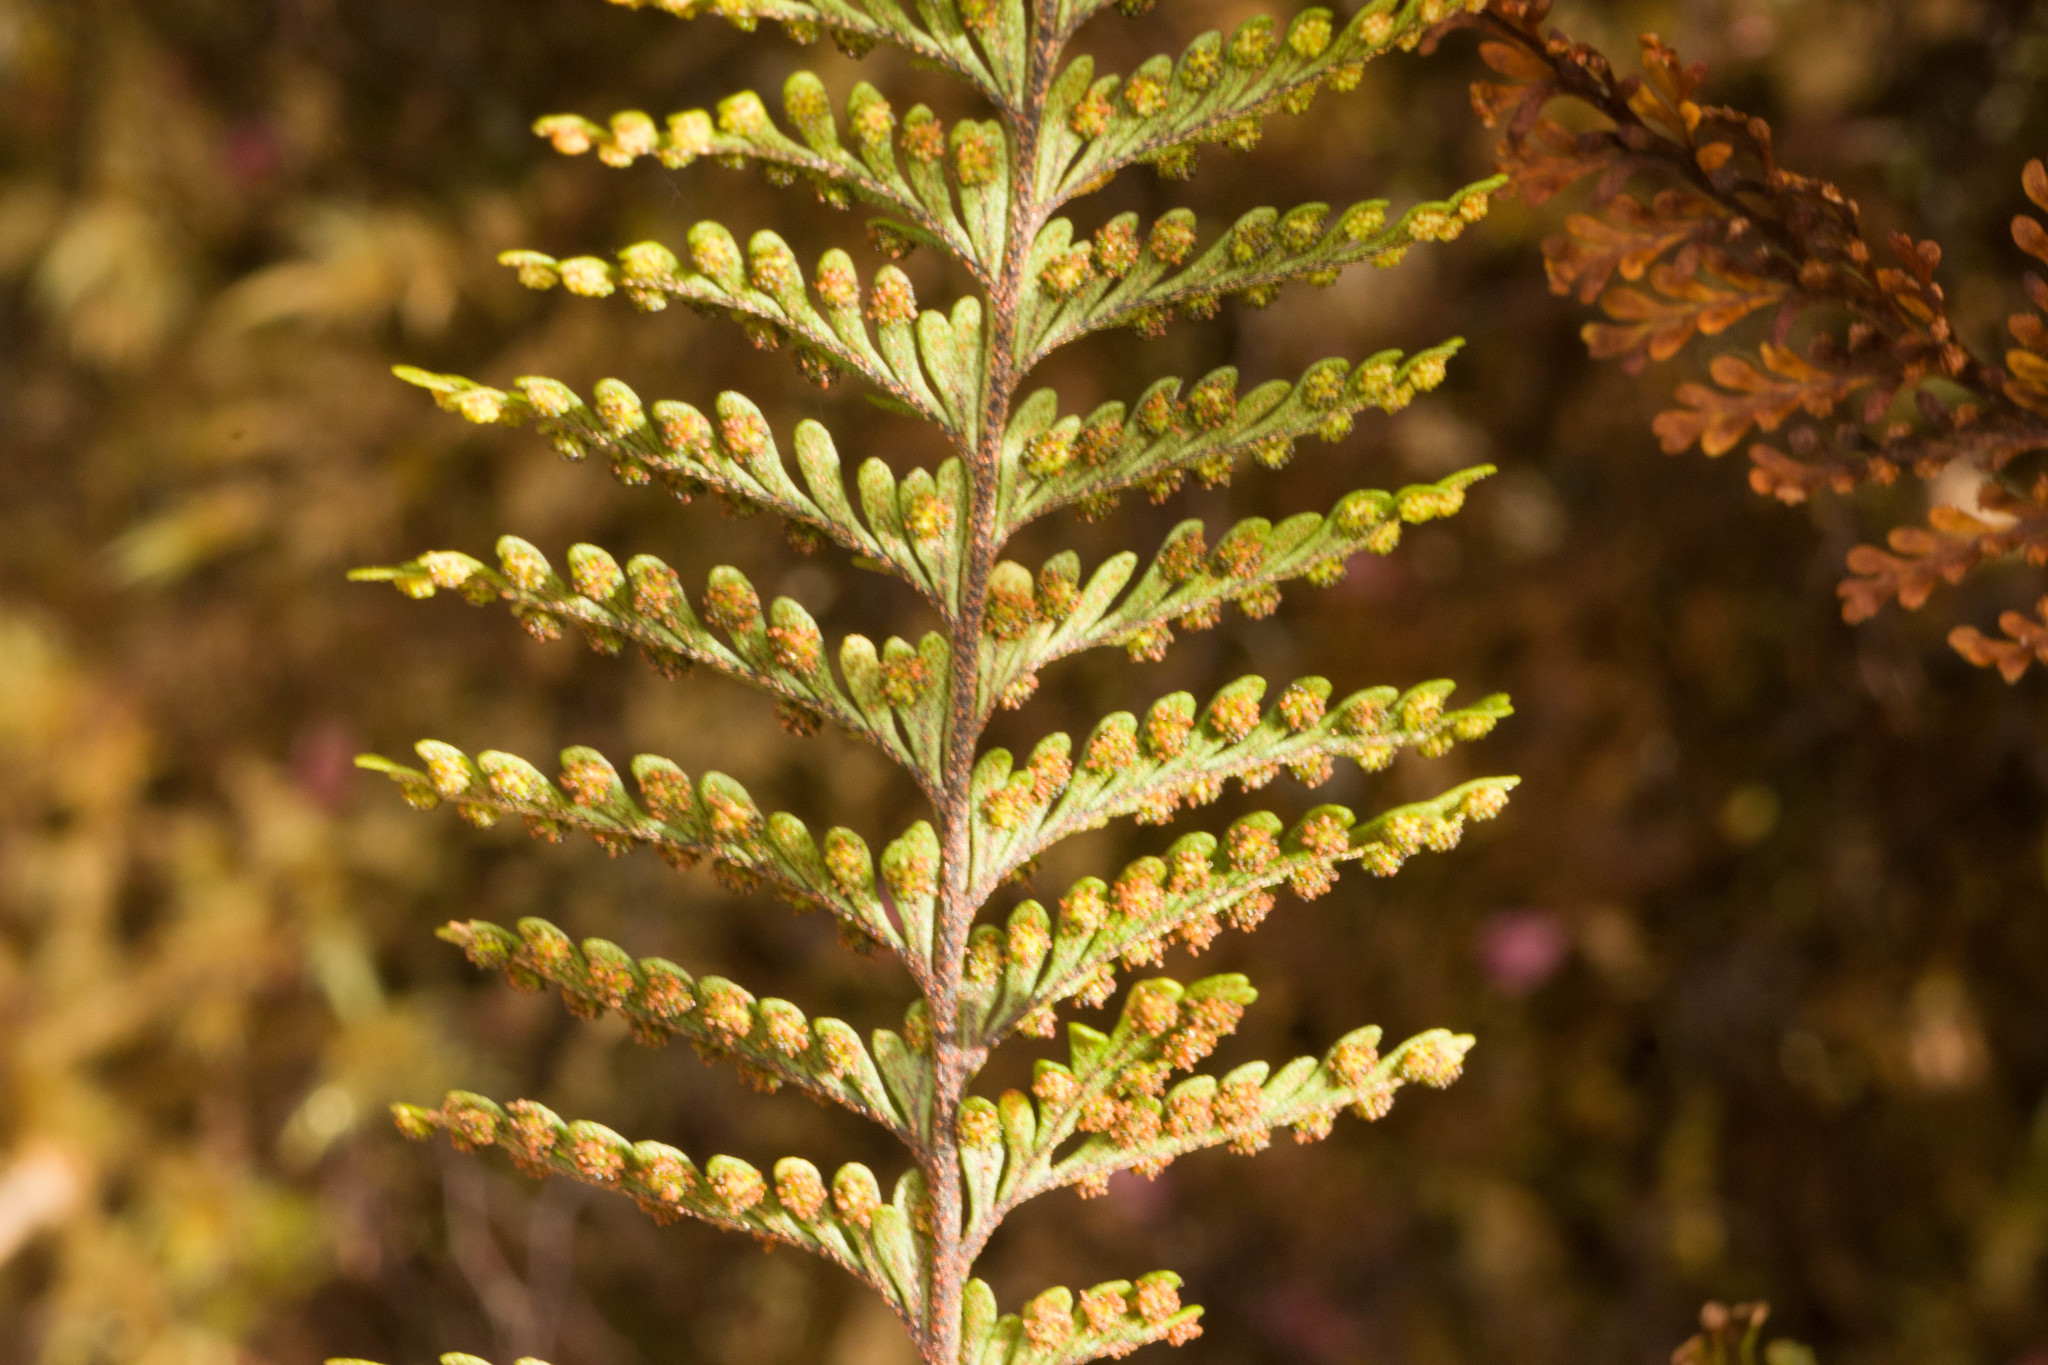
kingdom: Plantae
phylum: Tracheophyta
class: Polypodiopsida
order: Polypodiales
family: Polypodiaceae
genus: Adenophorus
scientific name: Adenophorus tamariscinus
